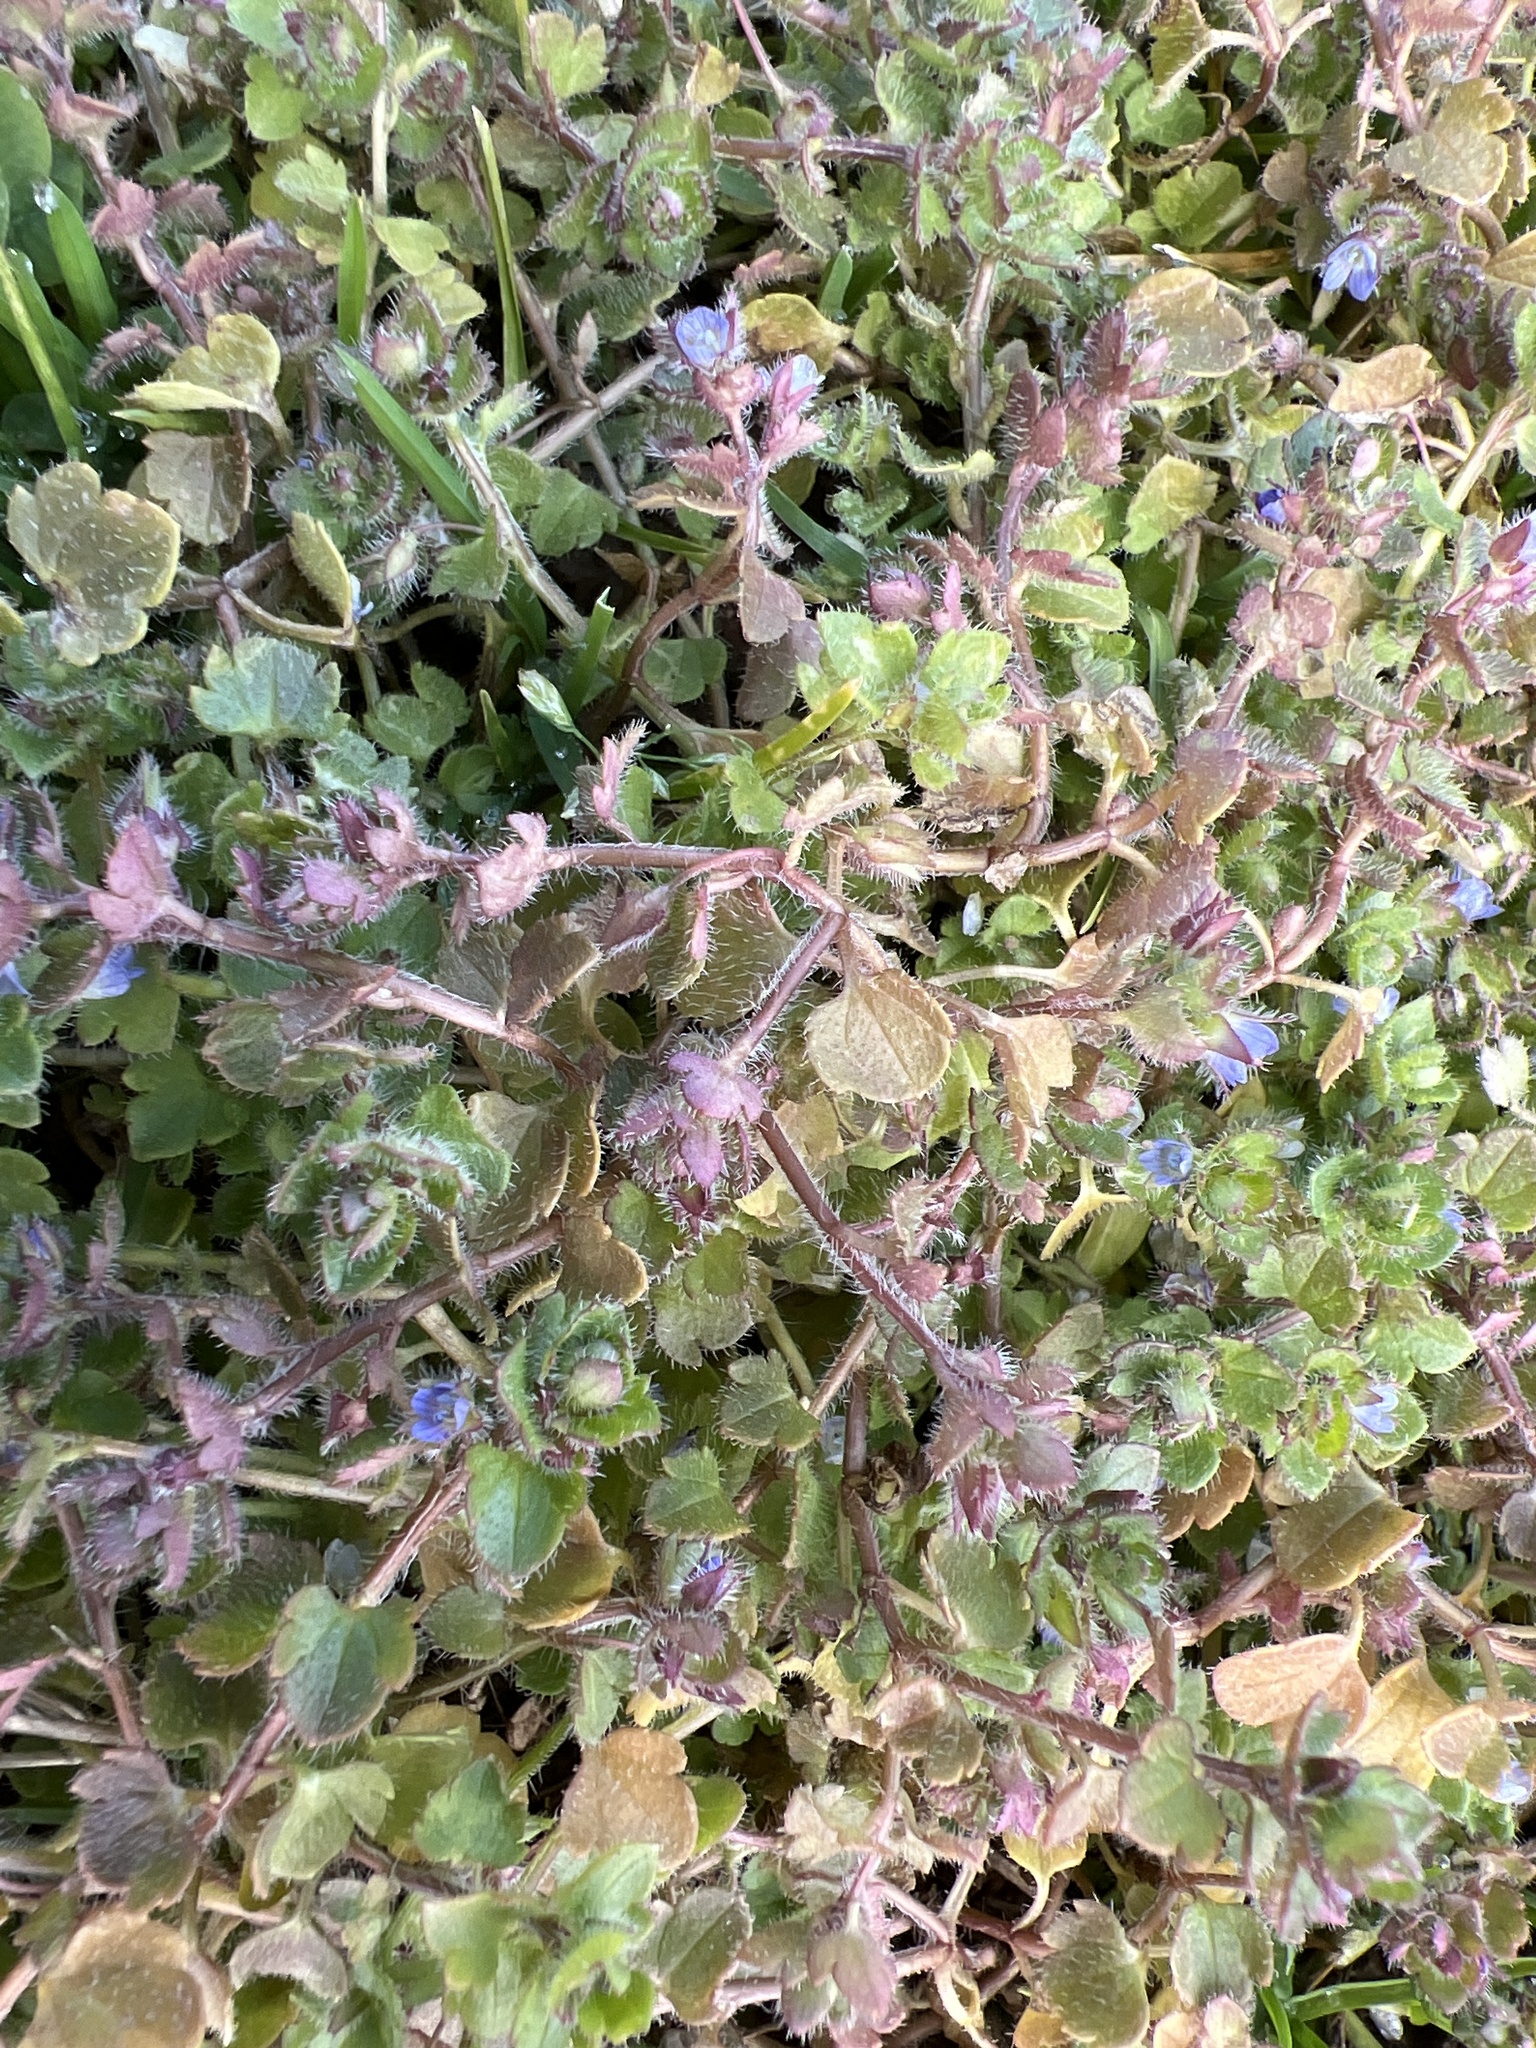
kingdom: Plantae
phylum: Tracheophyta
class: Magnoliopsida
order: Lamiales
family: Plantaginaceae
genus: Veronica
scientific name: Veronica hederifolia
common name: Ivy-leaved speedwell
